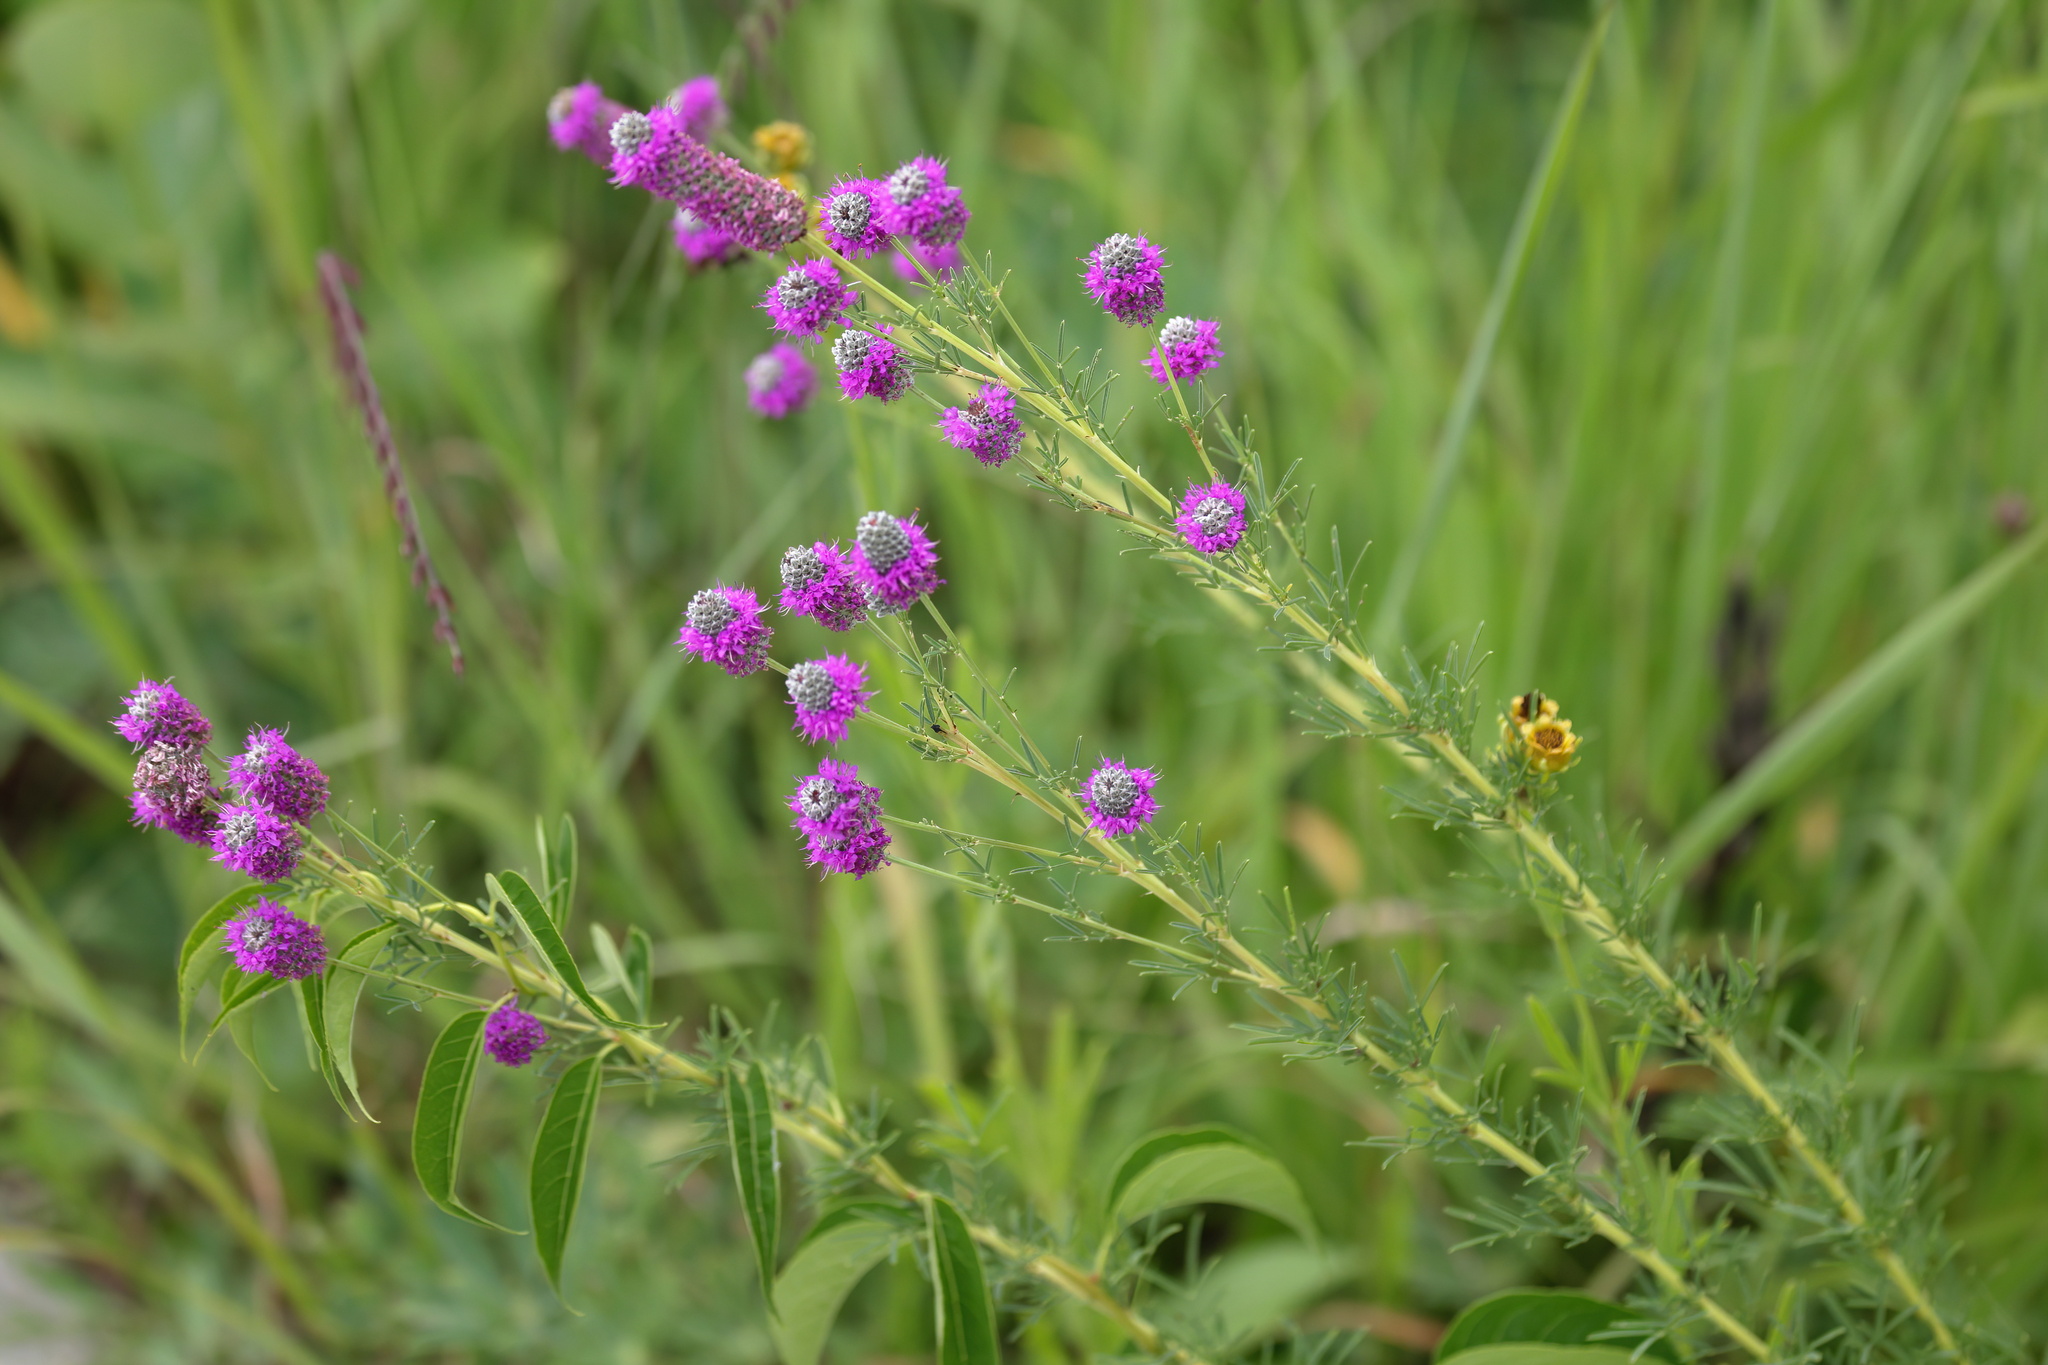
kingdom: Plantae
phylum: Tracheophyta
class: Magnoliopsida
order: Fabales
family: Fabaceae
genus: Dalea
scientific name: Dalea purpurea
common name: Purple prairie-clover
